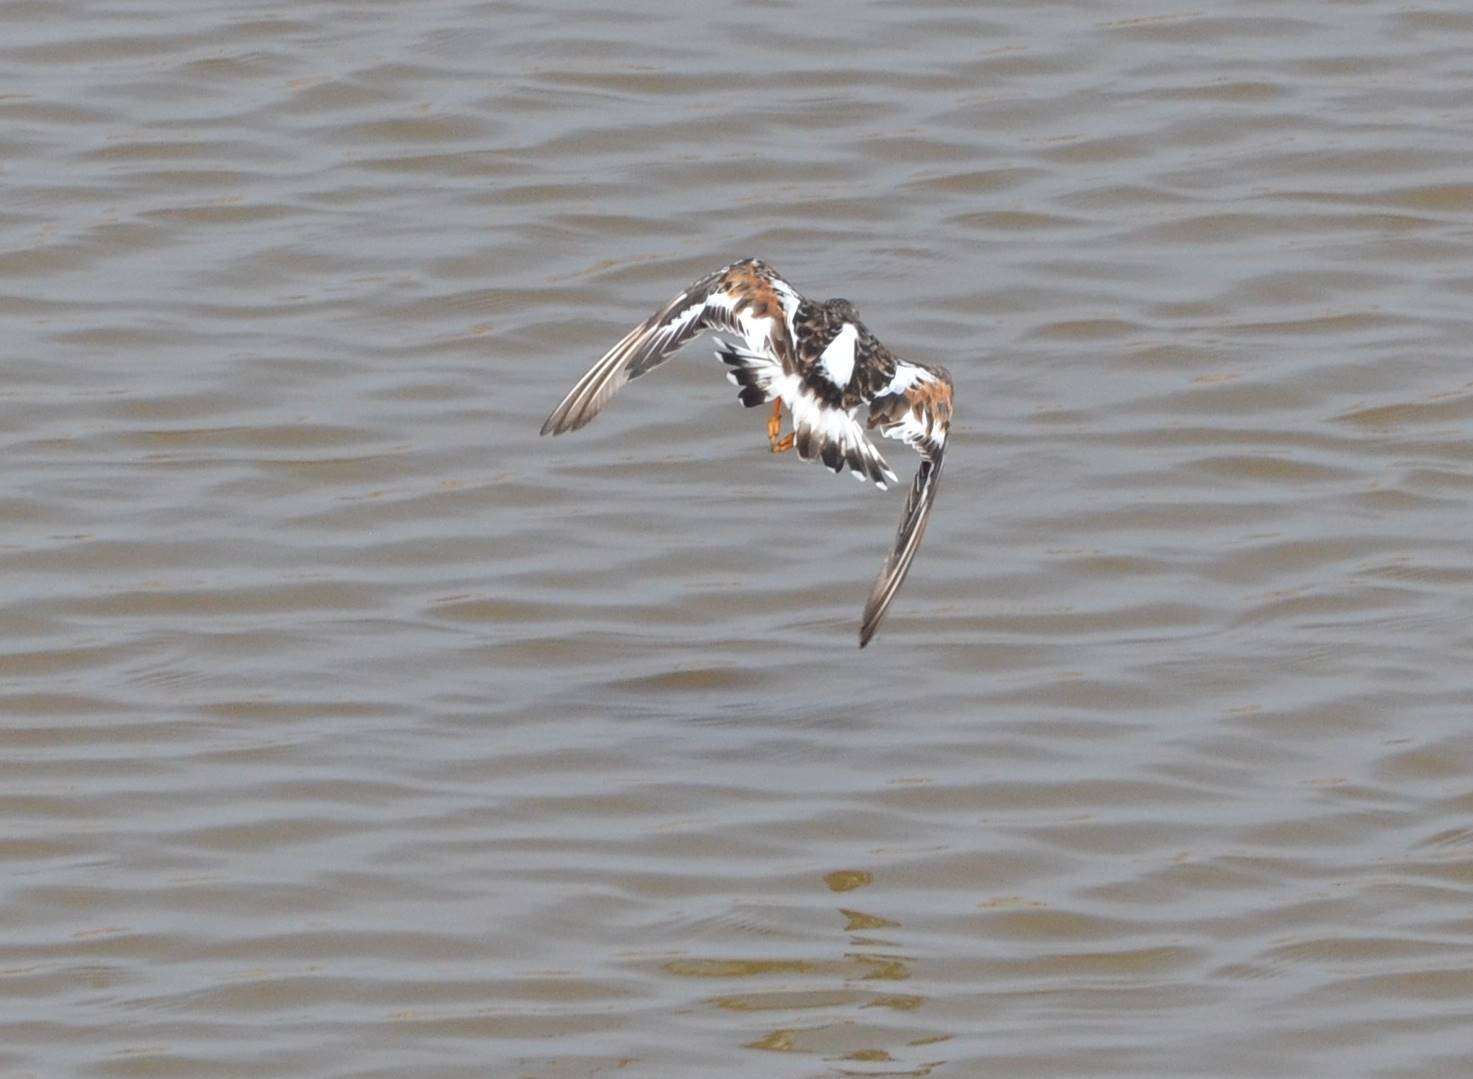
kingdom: Animalia
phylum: Chordata
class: Aves
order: Charadriiformes
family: Scolopacidae
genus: Arenaria
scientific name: Arenaria interpres
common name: Ruddy turnstone
